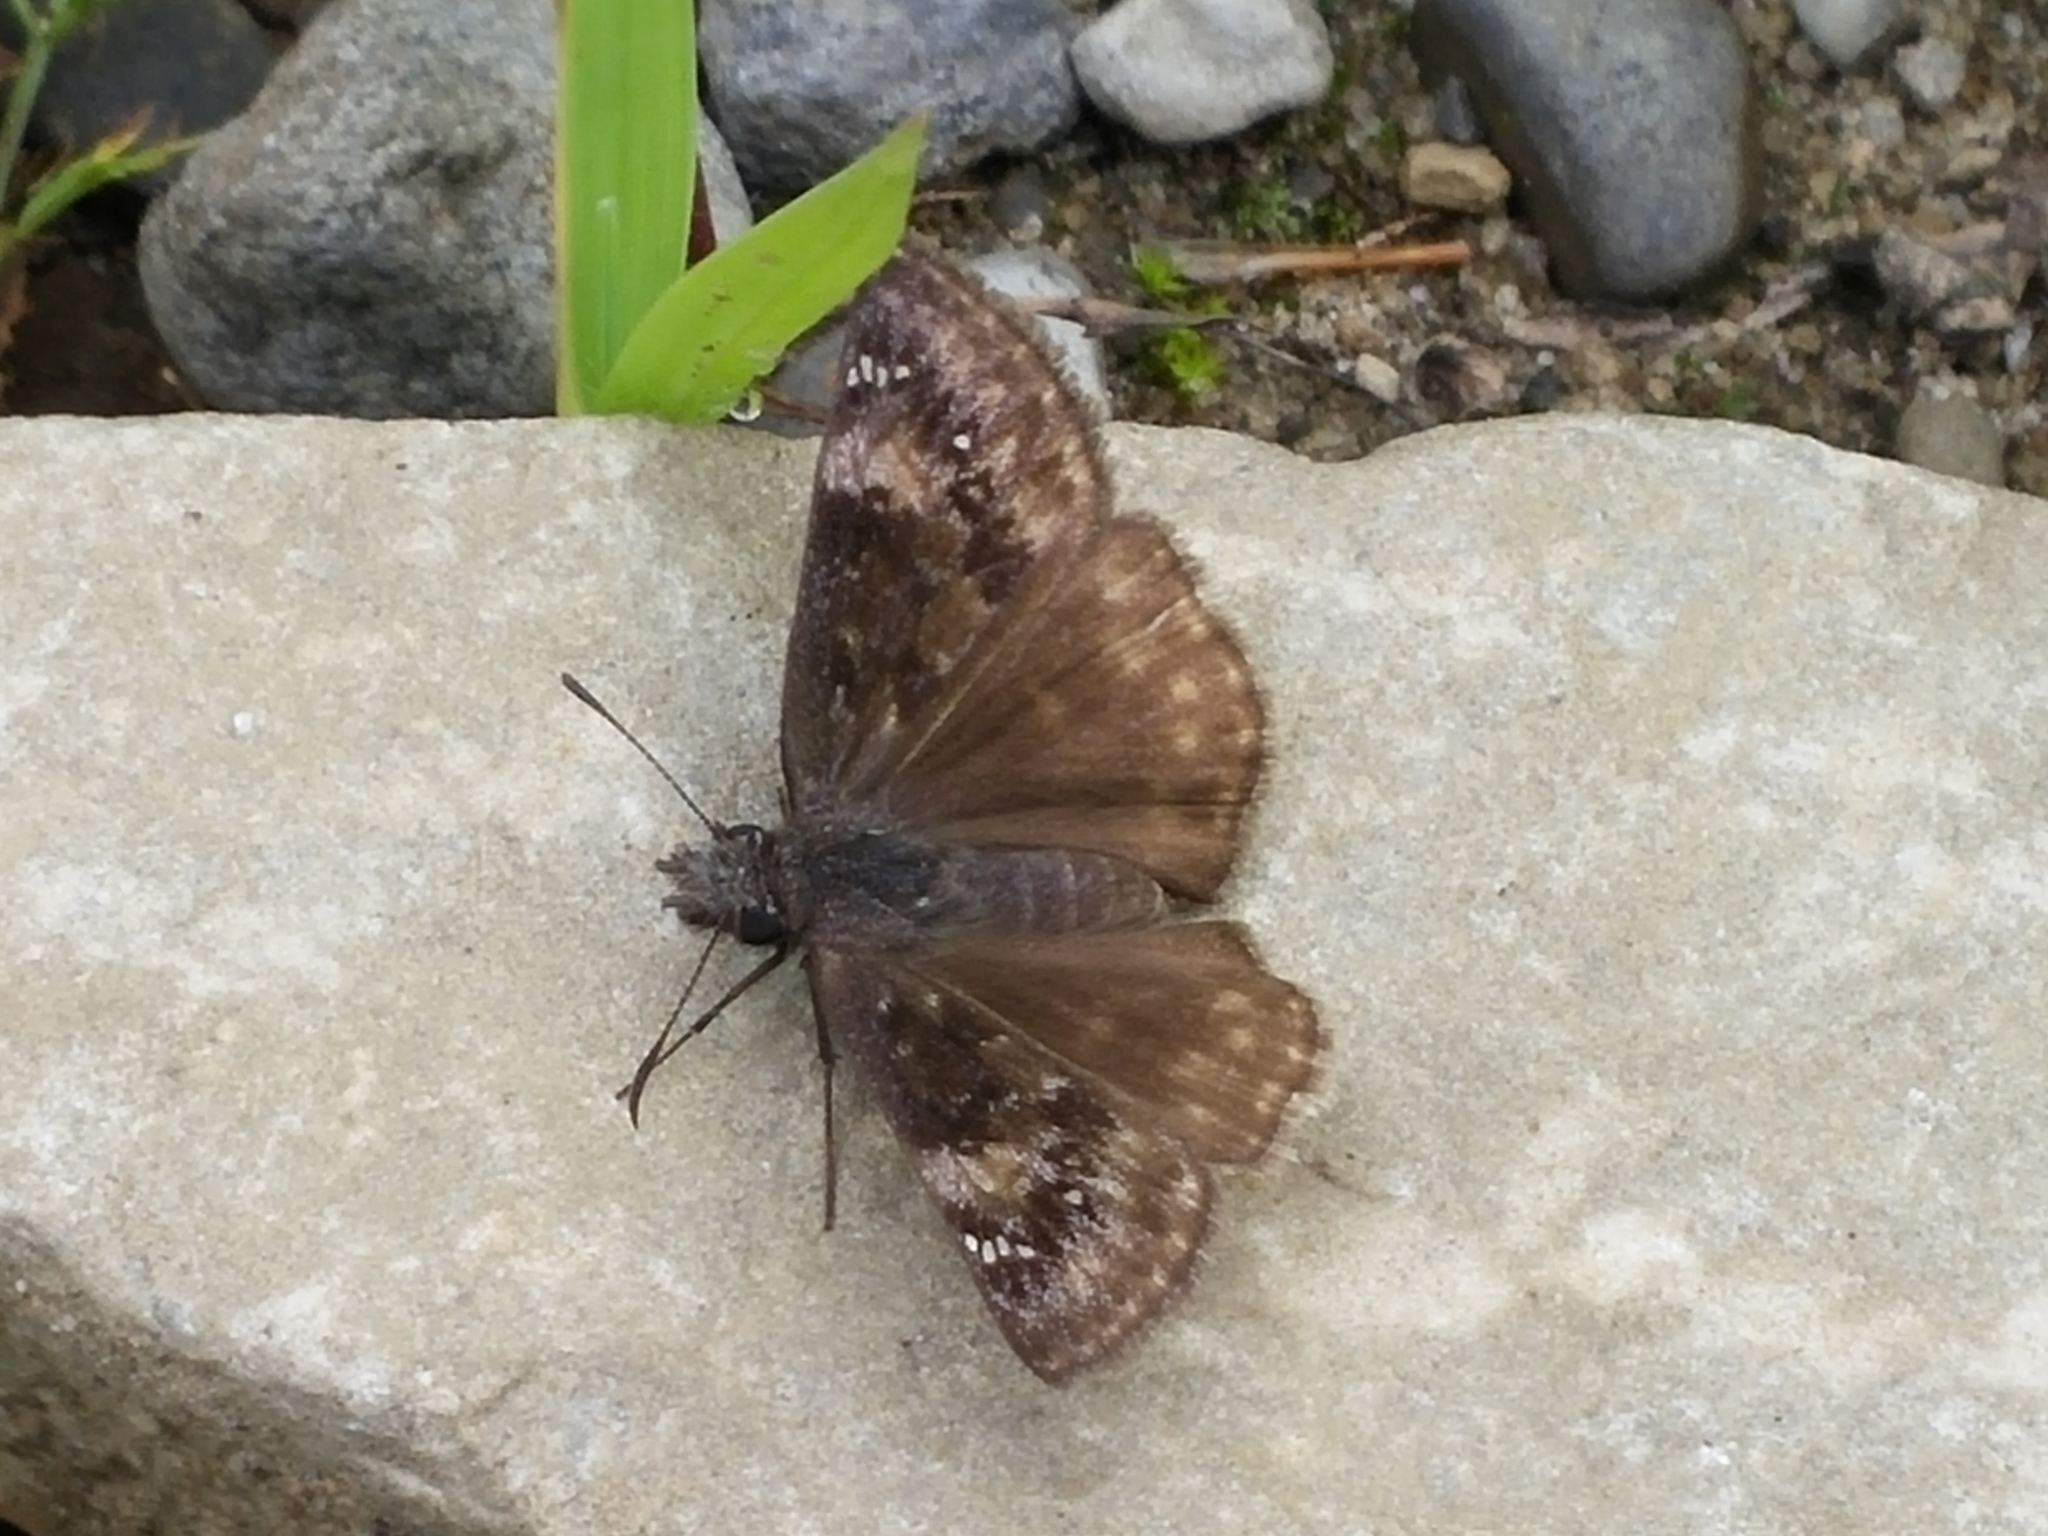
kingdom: Animalia
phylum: Arthropoda
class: Insecta
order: Lepidoptera
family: Hesperiidae
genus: Erynnis
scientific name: Erynnis baptisiae
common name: Wild indigo duskywing
